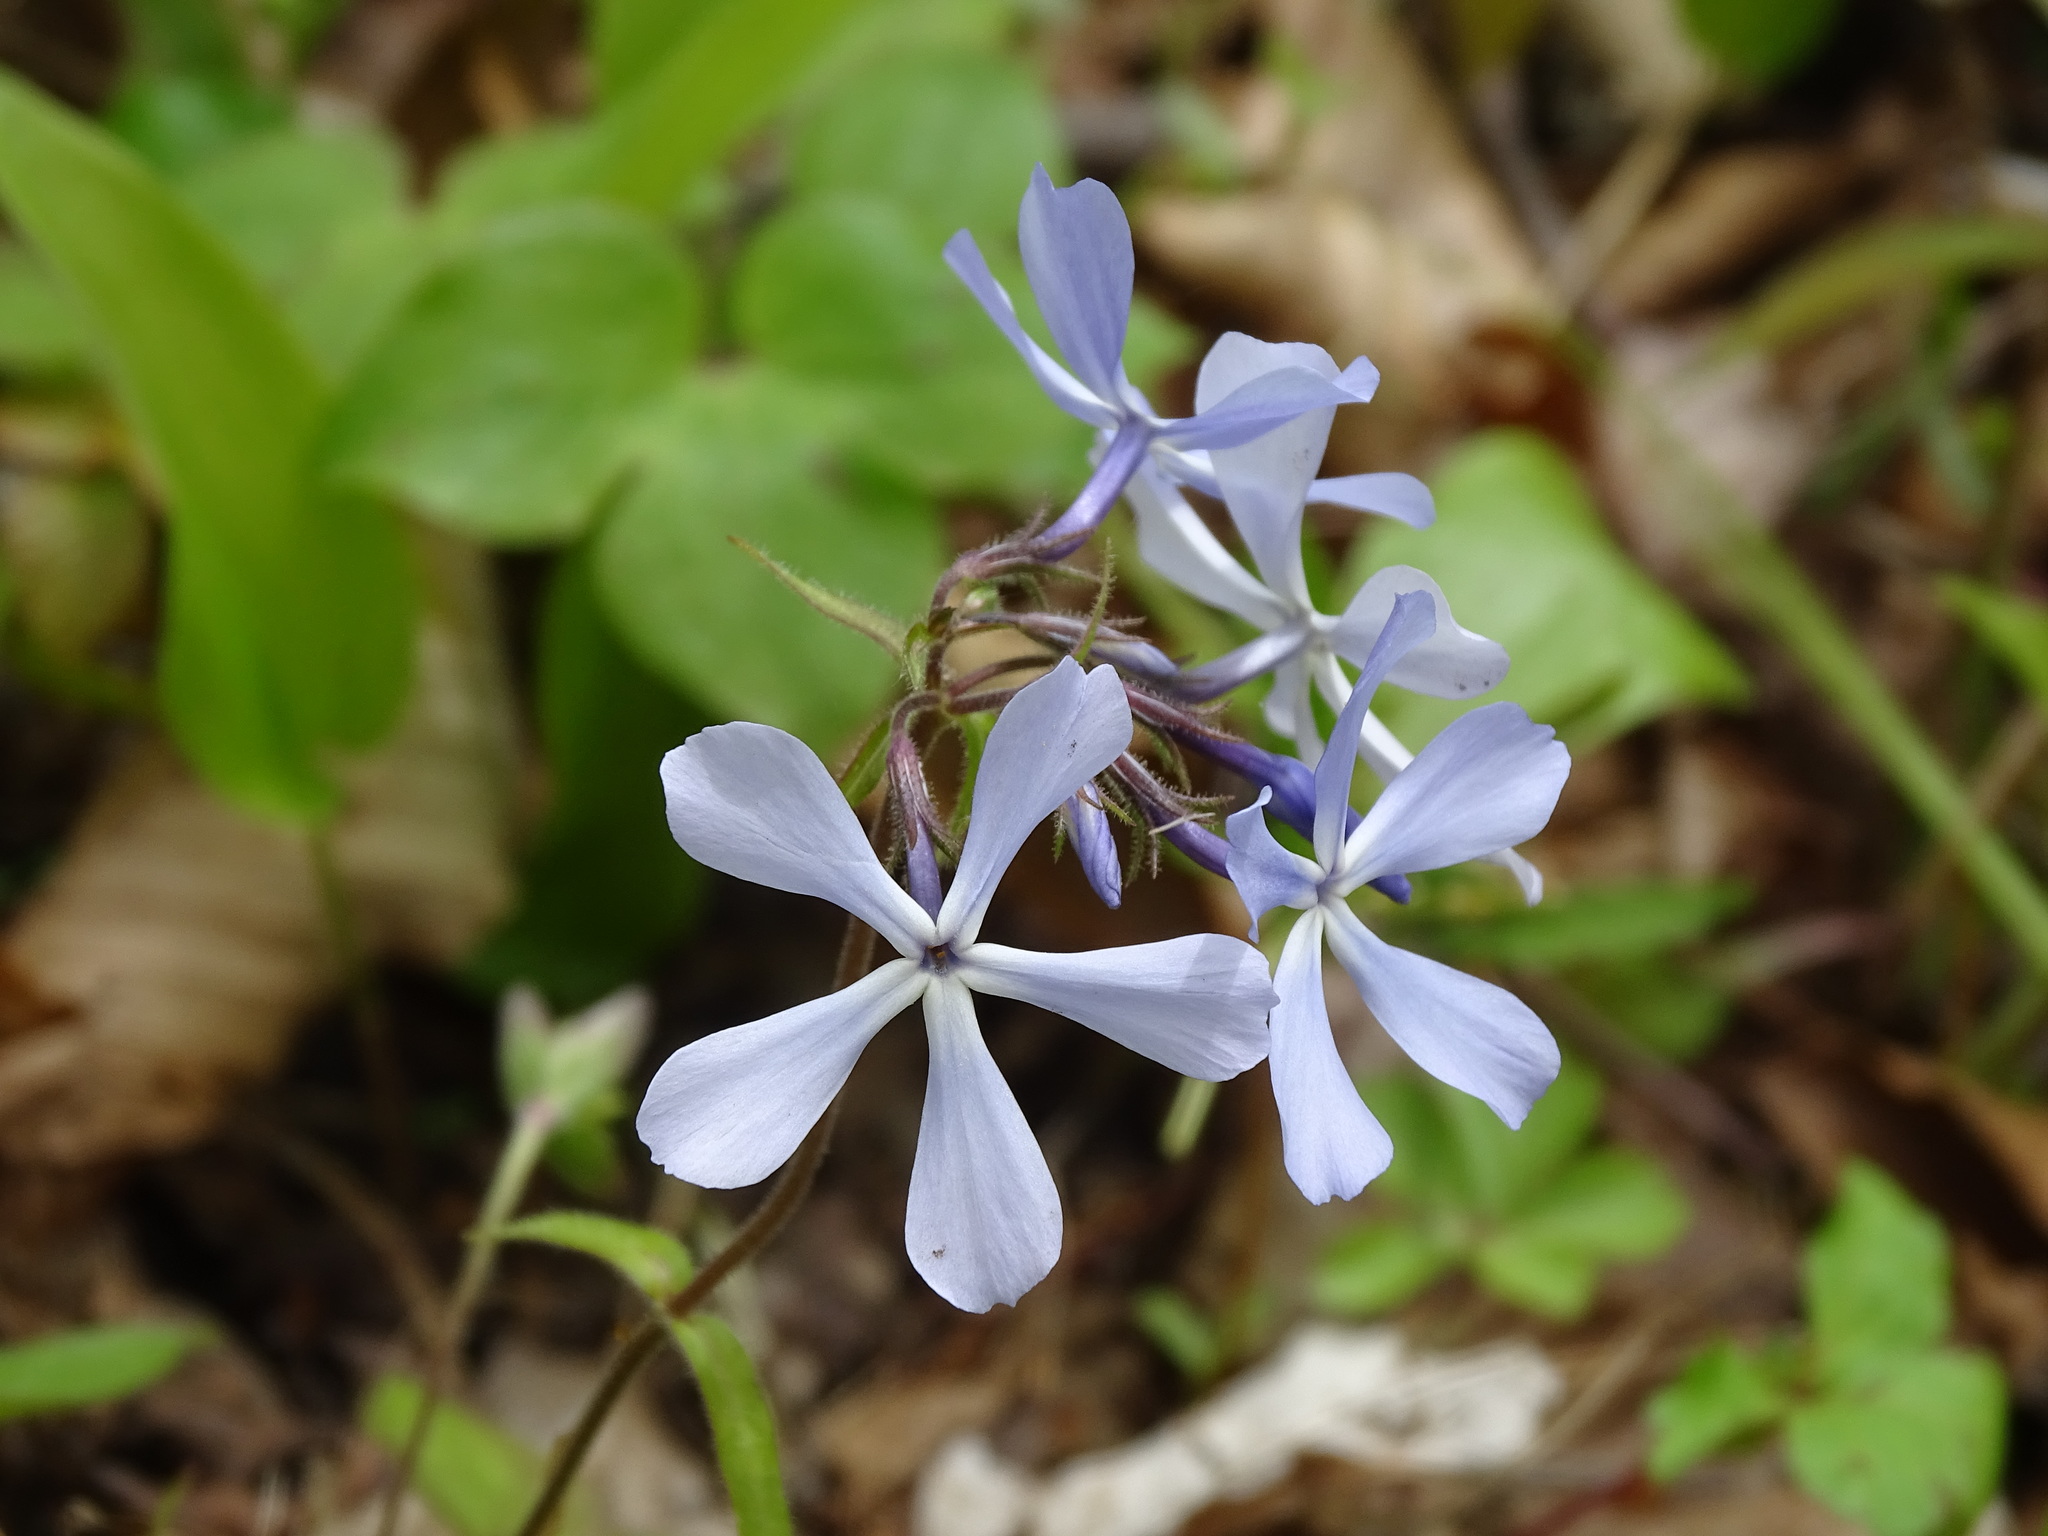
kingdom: Plantae
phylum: Tracheophyta
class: Magnoliopsida
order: Ericales
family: Polemoniaceae
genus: Phlox
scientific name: Phlox divaricata
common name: Blue phlox
